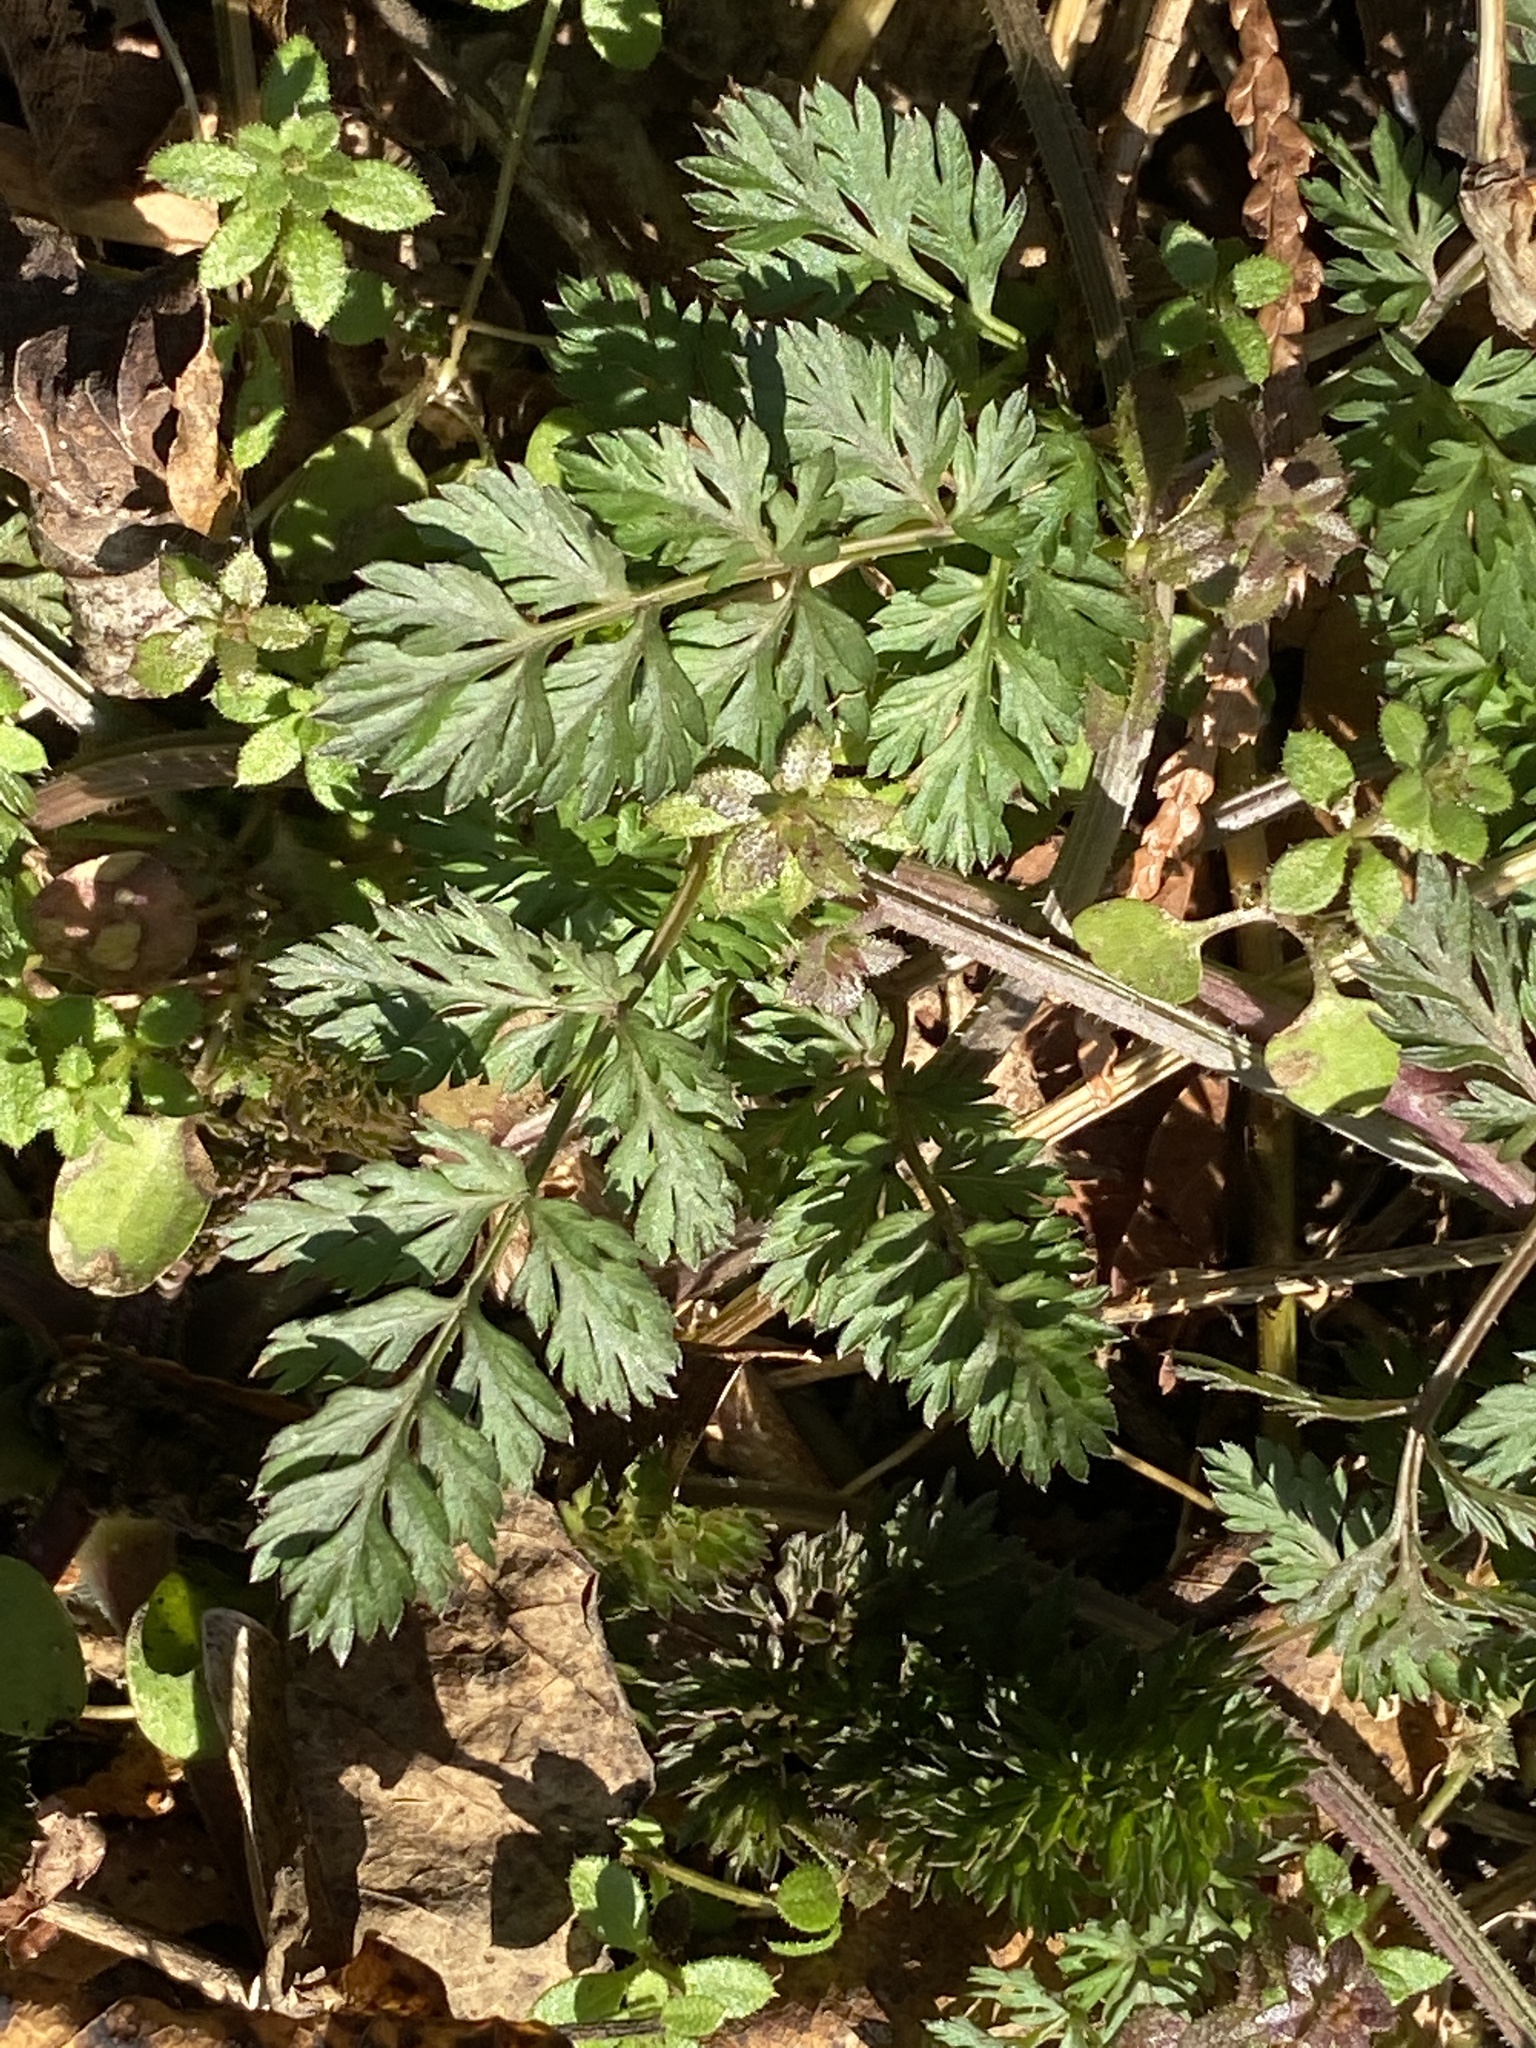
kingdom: Plantae
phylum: Tracheophyta
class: Magnoliopsida
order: Apiales
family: Apiaceae
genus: Daucus
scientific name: Daucus carota
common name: Wild carrot
